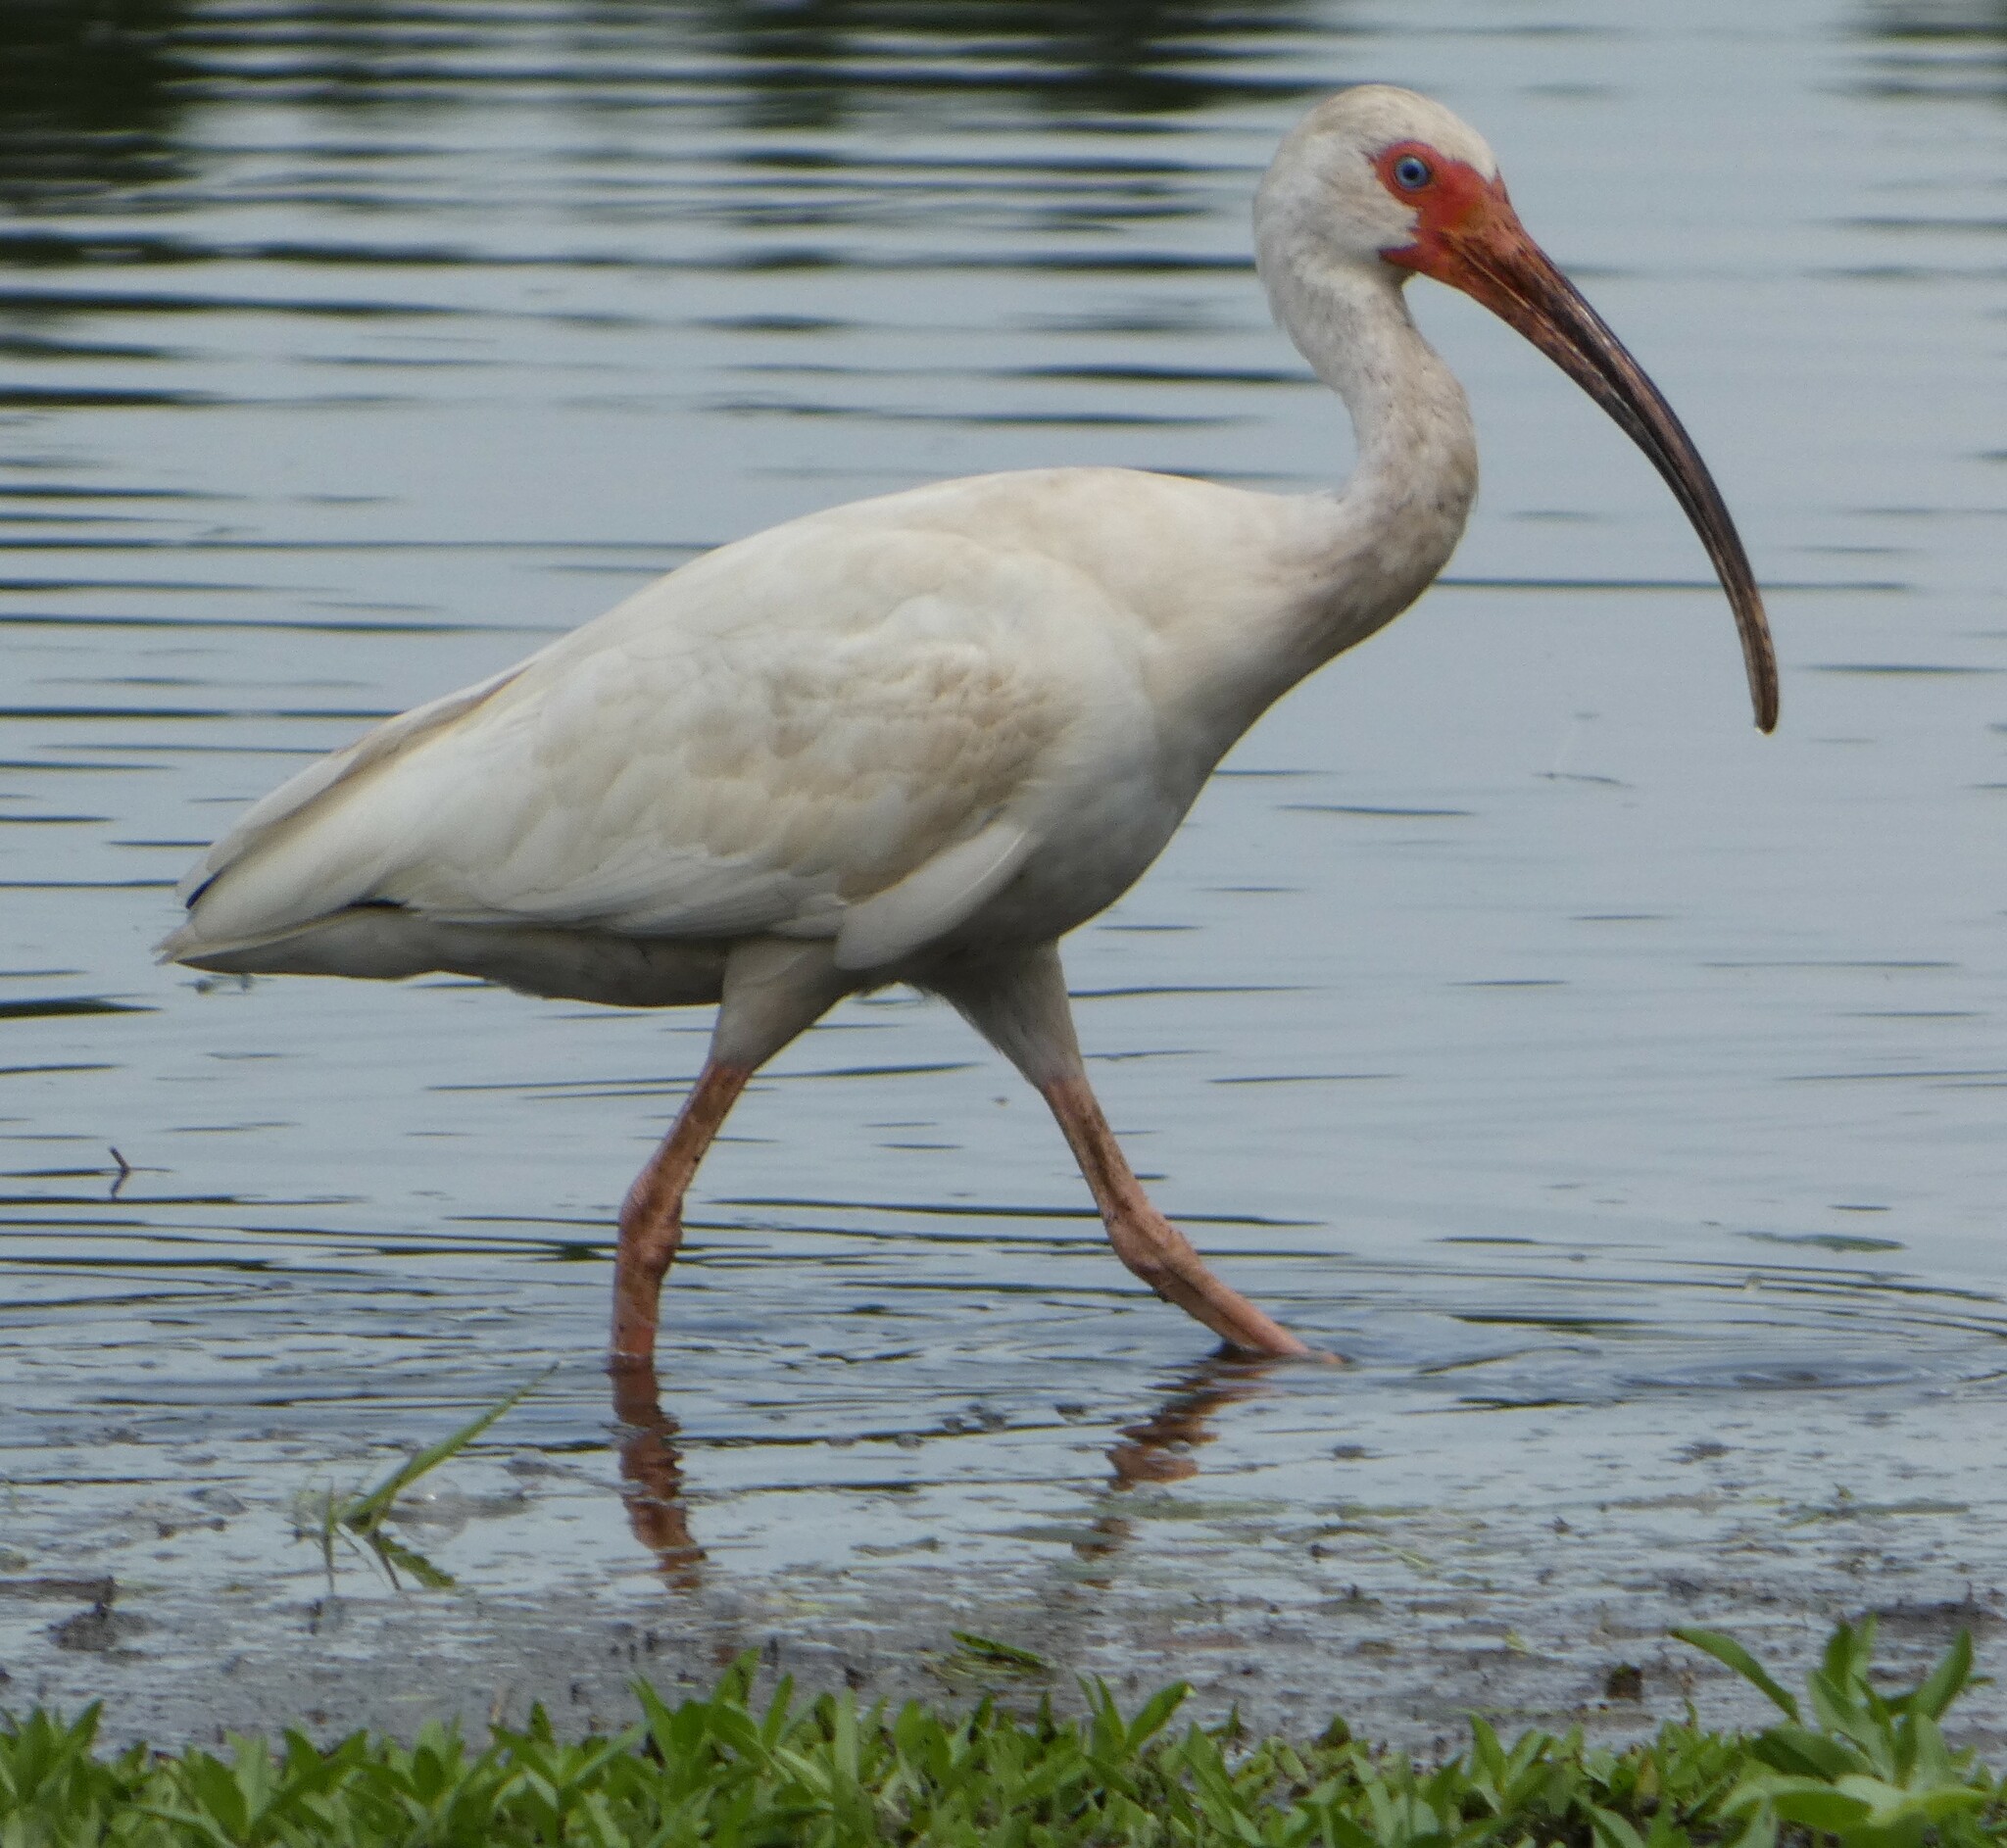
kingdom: Animalia
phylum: Chordata
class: Aves
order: Pelecaniformes
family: Threskiornithidae
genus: Eudocimus
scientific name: Eudocimus albus
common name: White ibis
